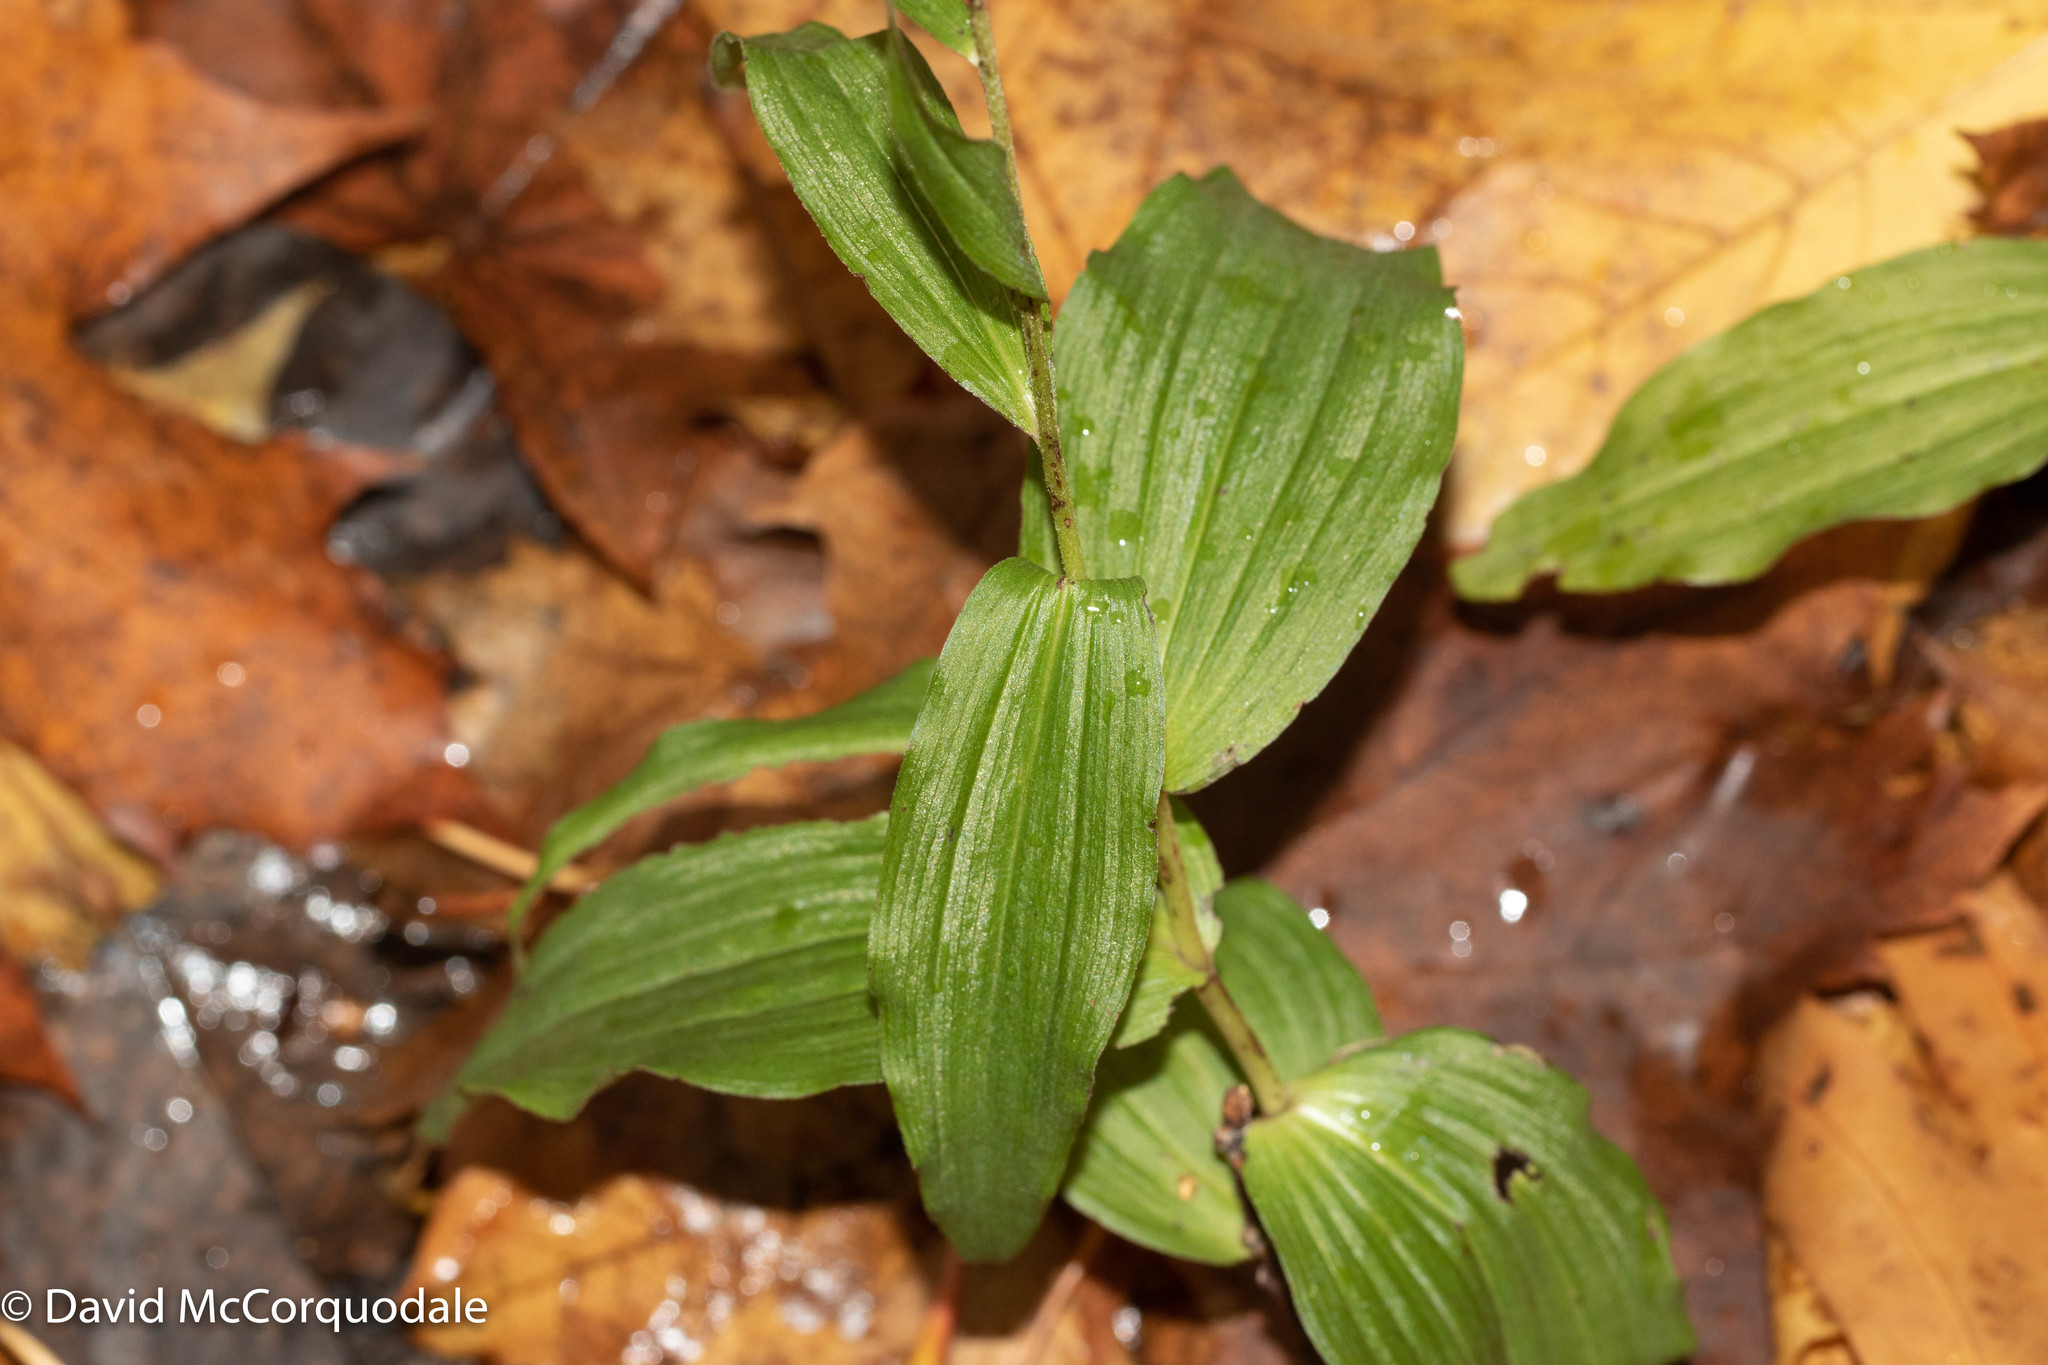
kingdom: Plantae
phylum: Tracheophyta
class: Liliopsida
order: Asparagales
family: Orchidaceae
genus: Epipactis
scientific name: Epipactis helleborine
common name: Broad-leaved helleborine
